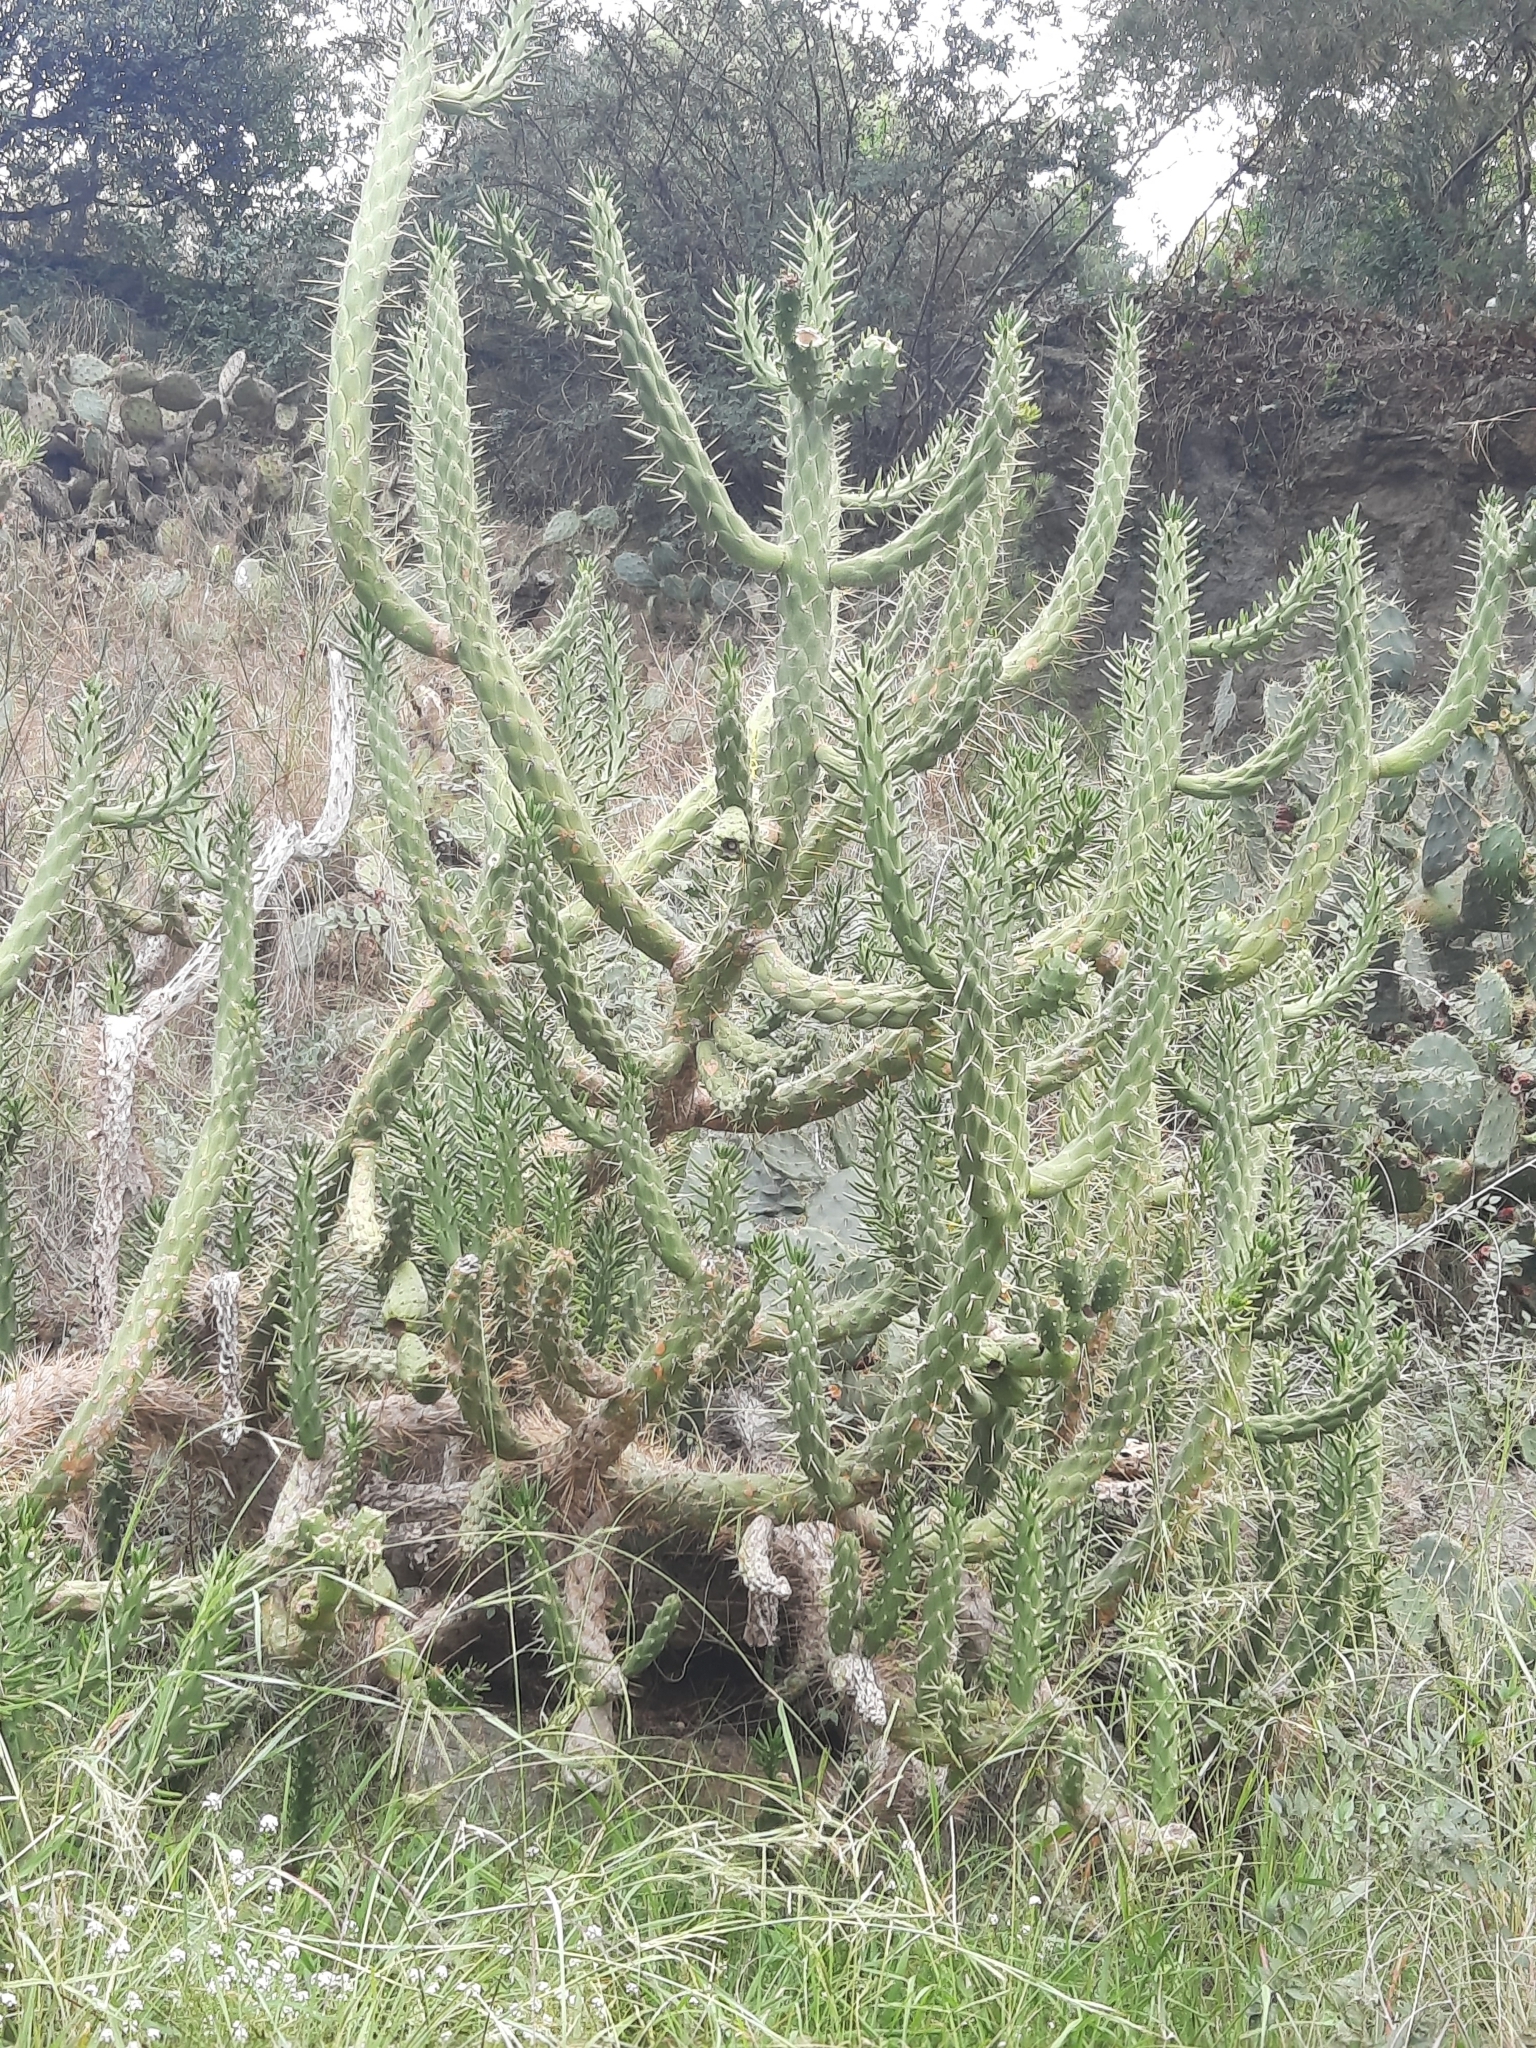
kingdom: Plantae
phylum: Tracheophyta
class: Magnoliopsida
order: Caryophyllales
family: Cactaceae
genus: Austrocylindropuntia
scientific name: Austrocylindropuntia subulata
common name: Eve's needle cactus
